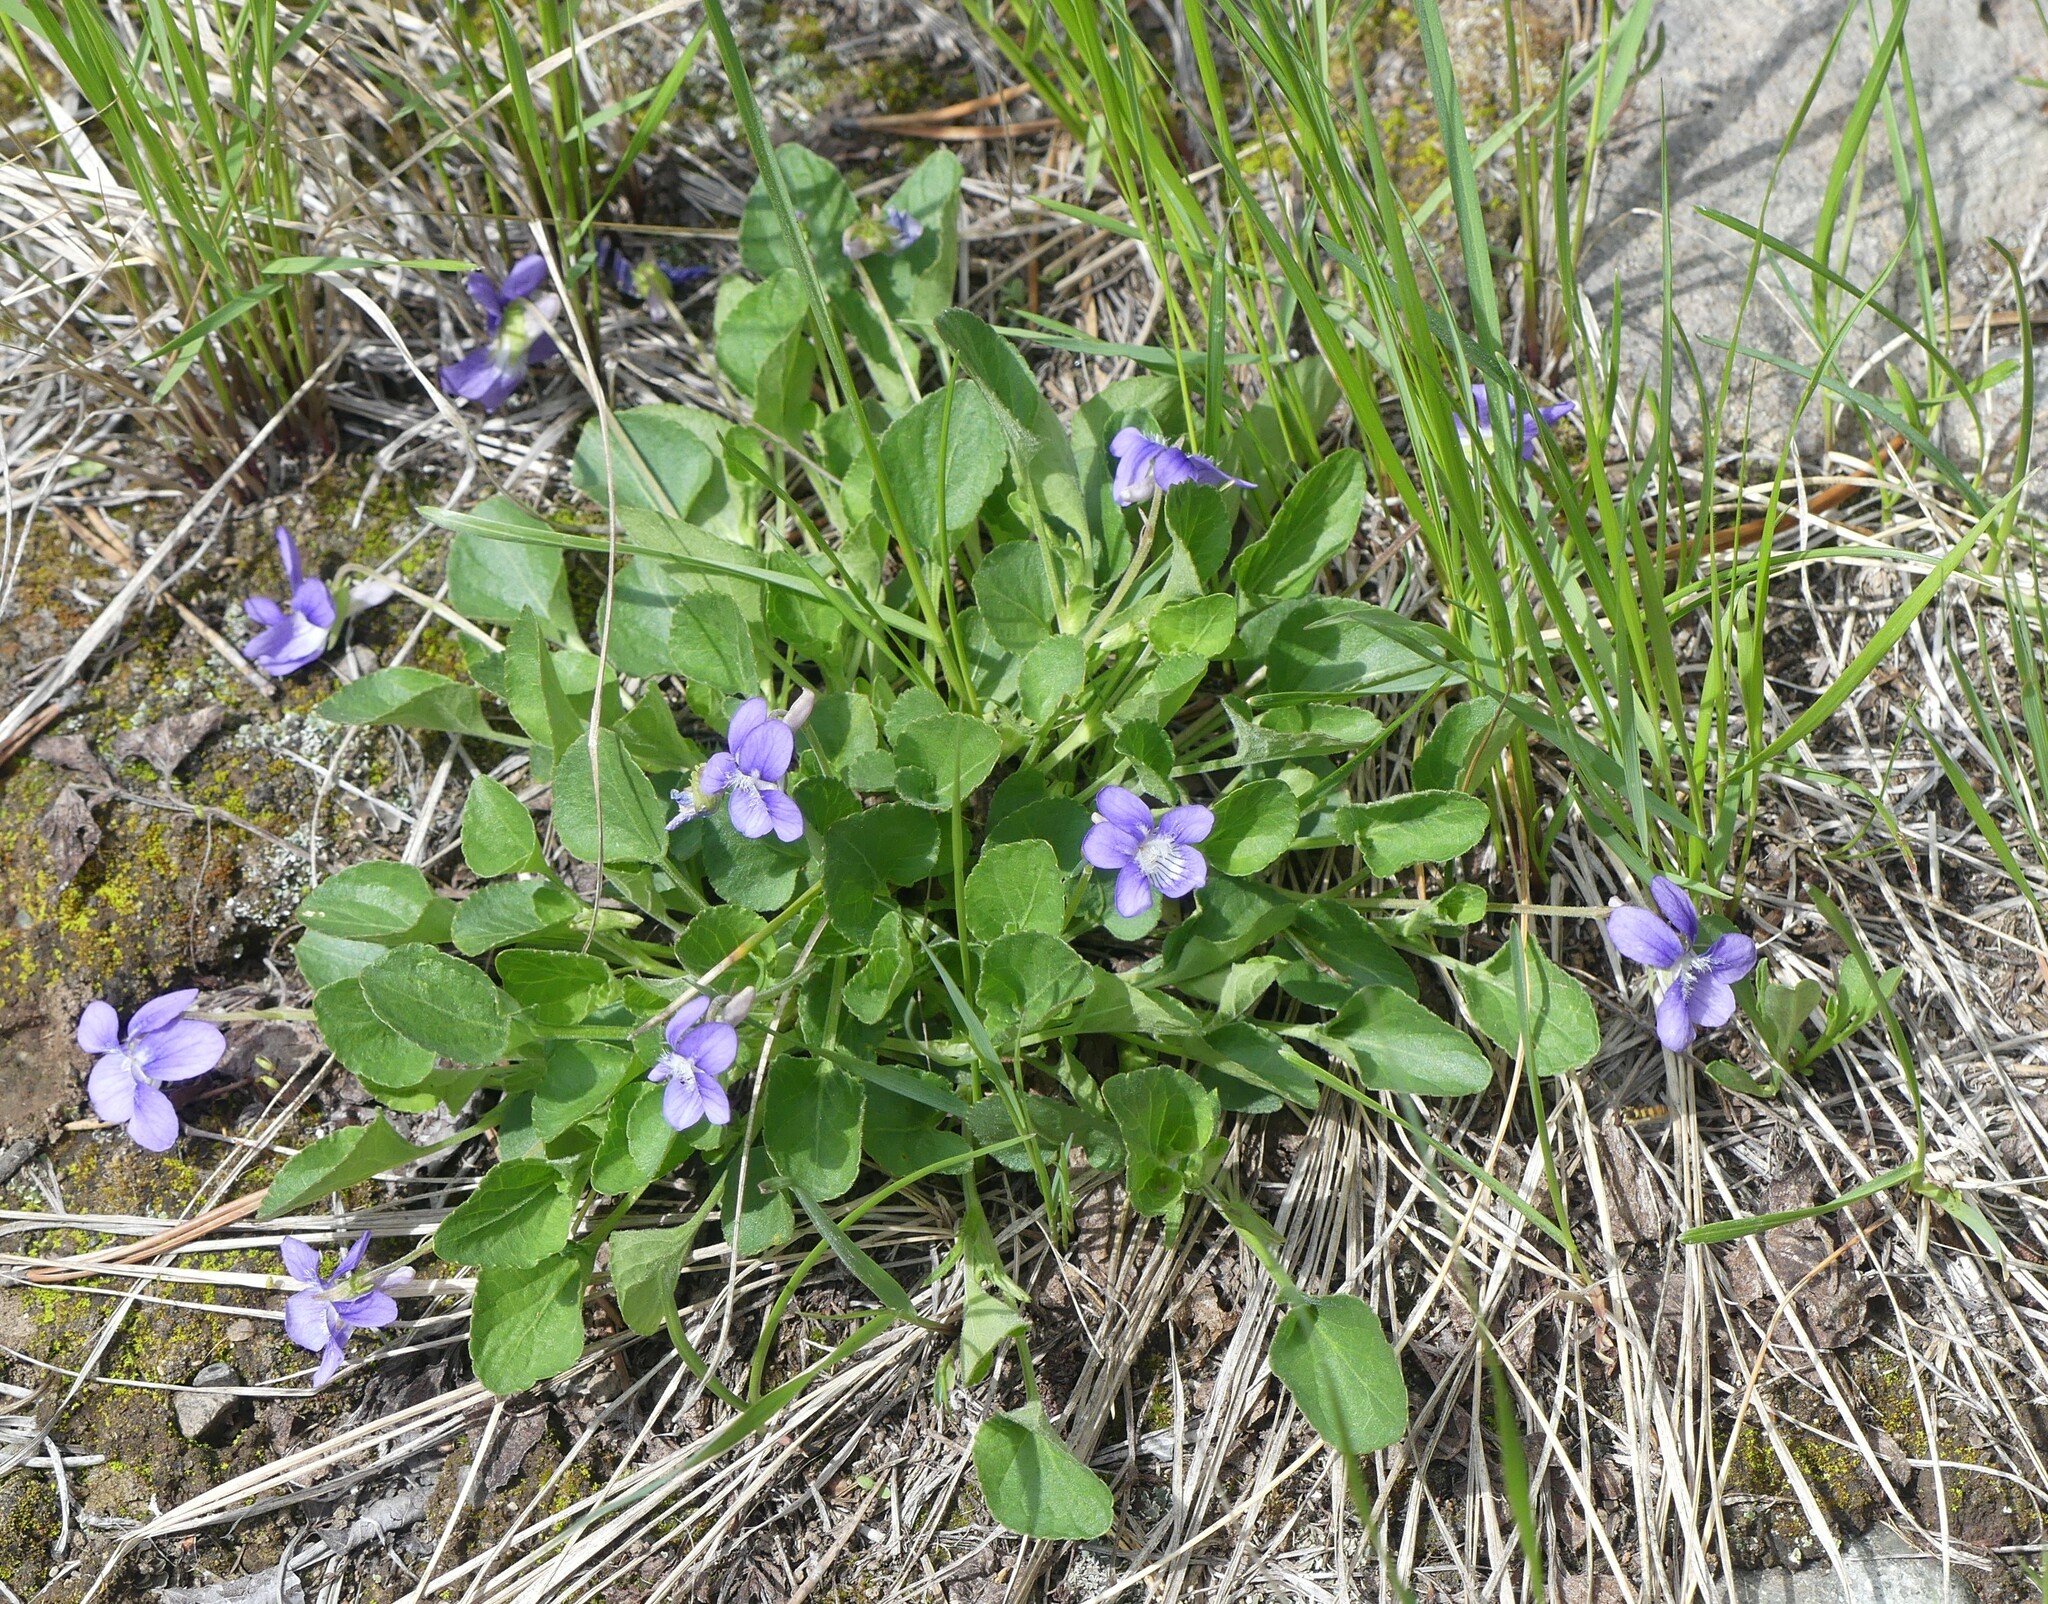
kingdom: Plantae
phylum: Tracheophyta
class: Magnoliopsida
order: Malpighiales
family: Violaceae
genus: Viola
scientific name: Viola adunca
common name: Sand violet
